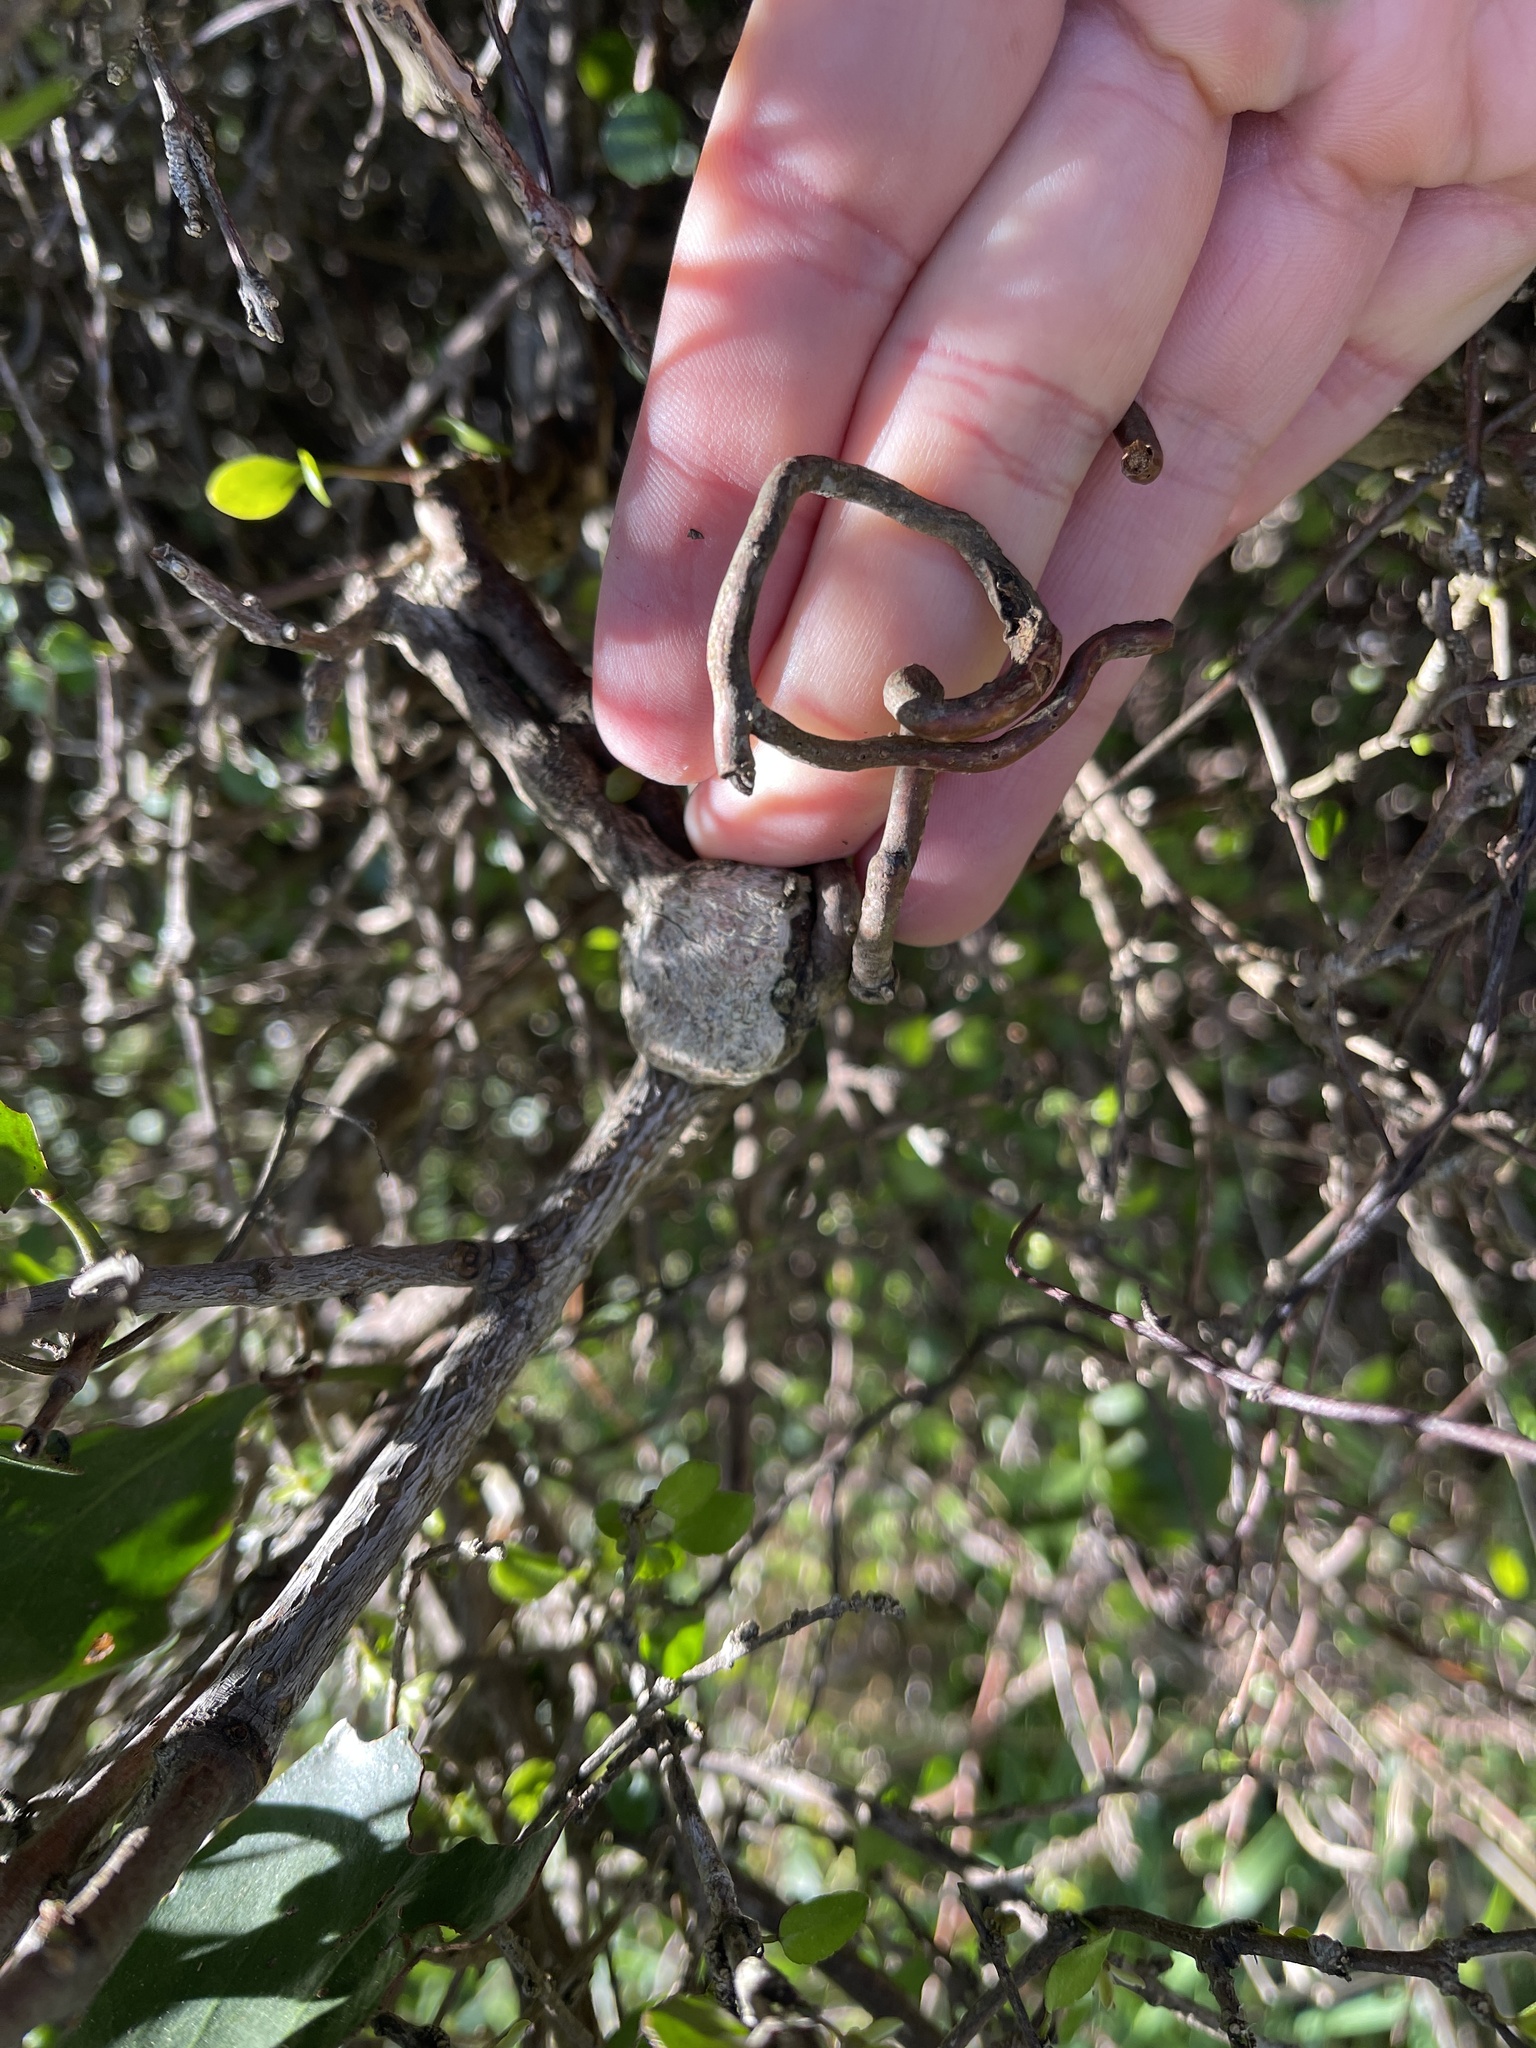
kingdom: Plantae
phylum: Tracheophyta
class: Magnoliopsida
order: Santalales
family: Loranthaceae
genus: Ileostylus
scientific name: Ileostylus micranthus
